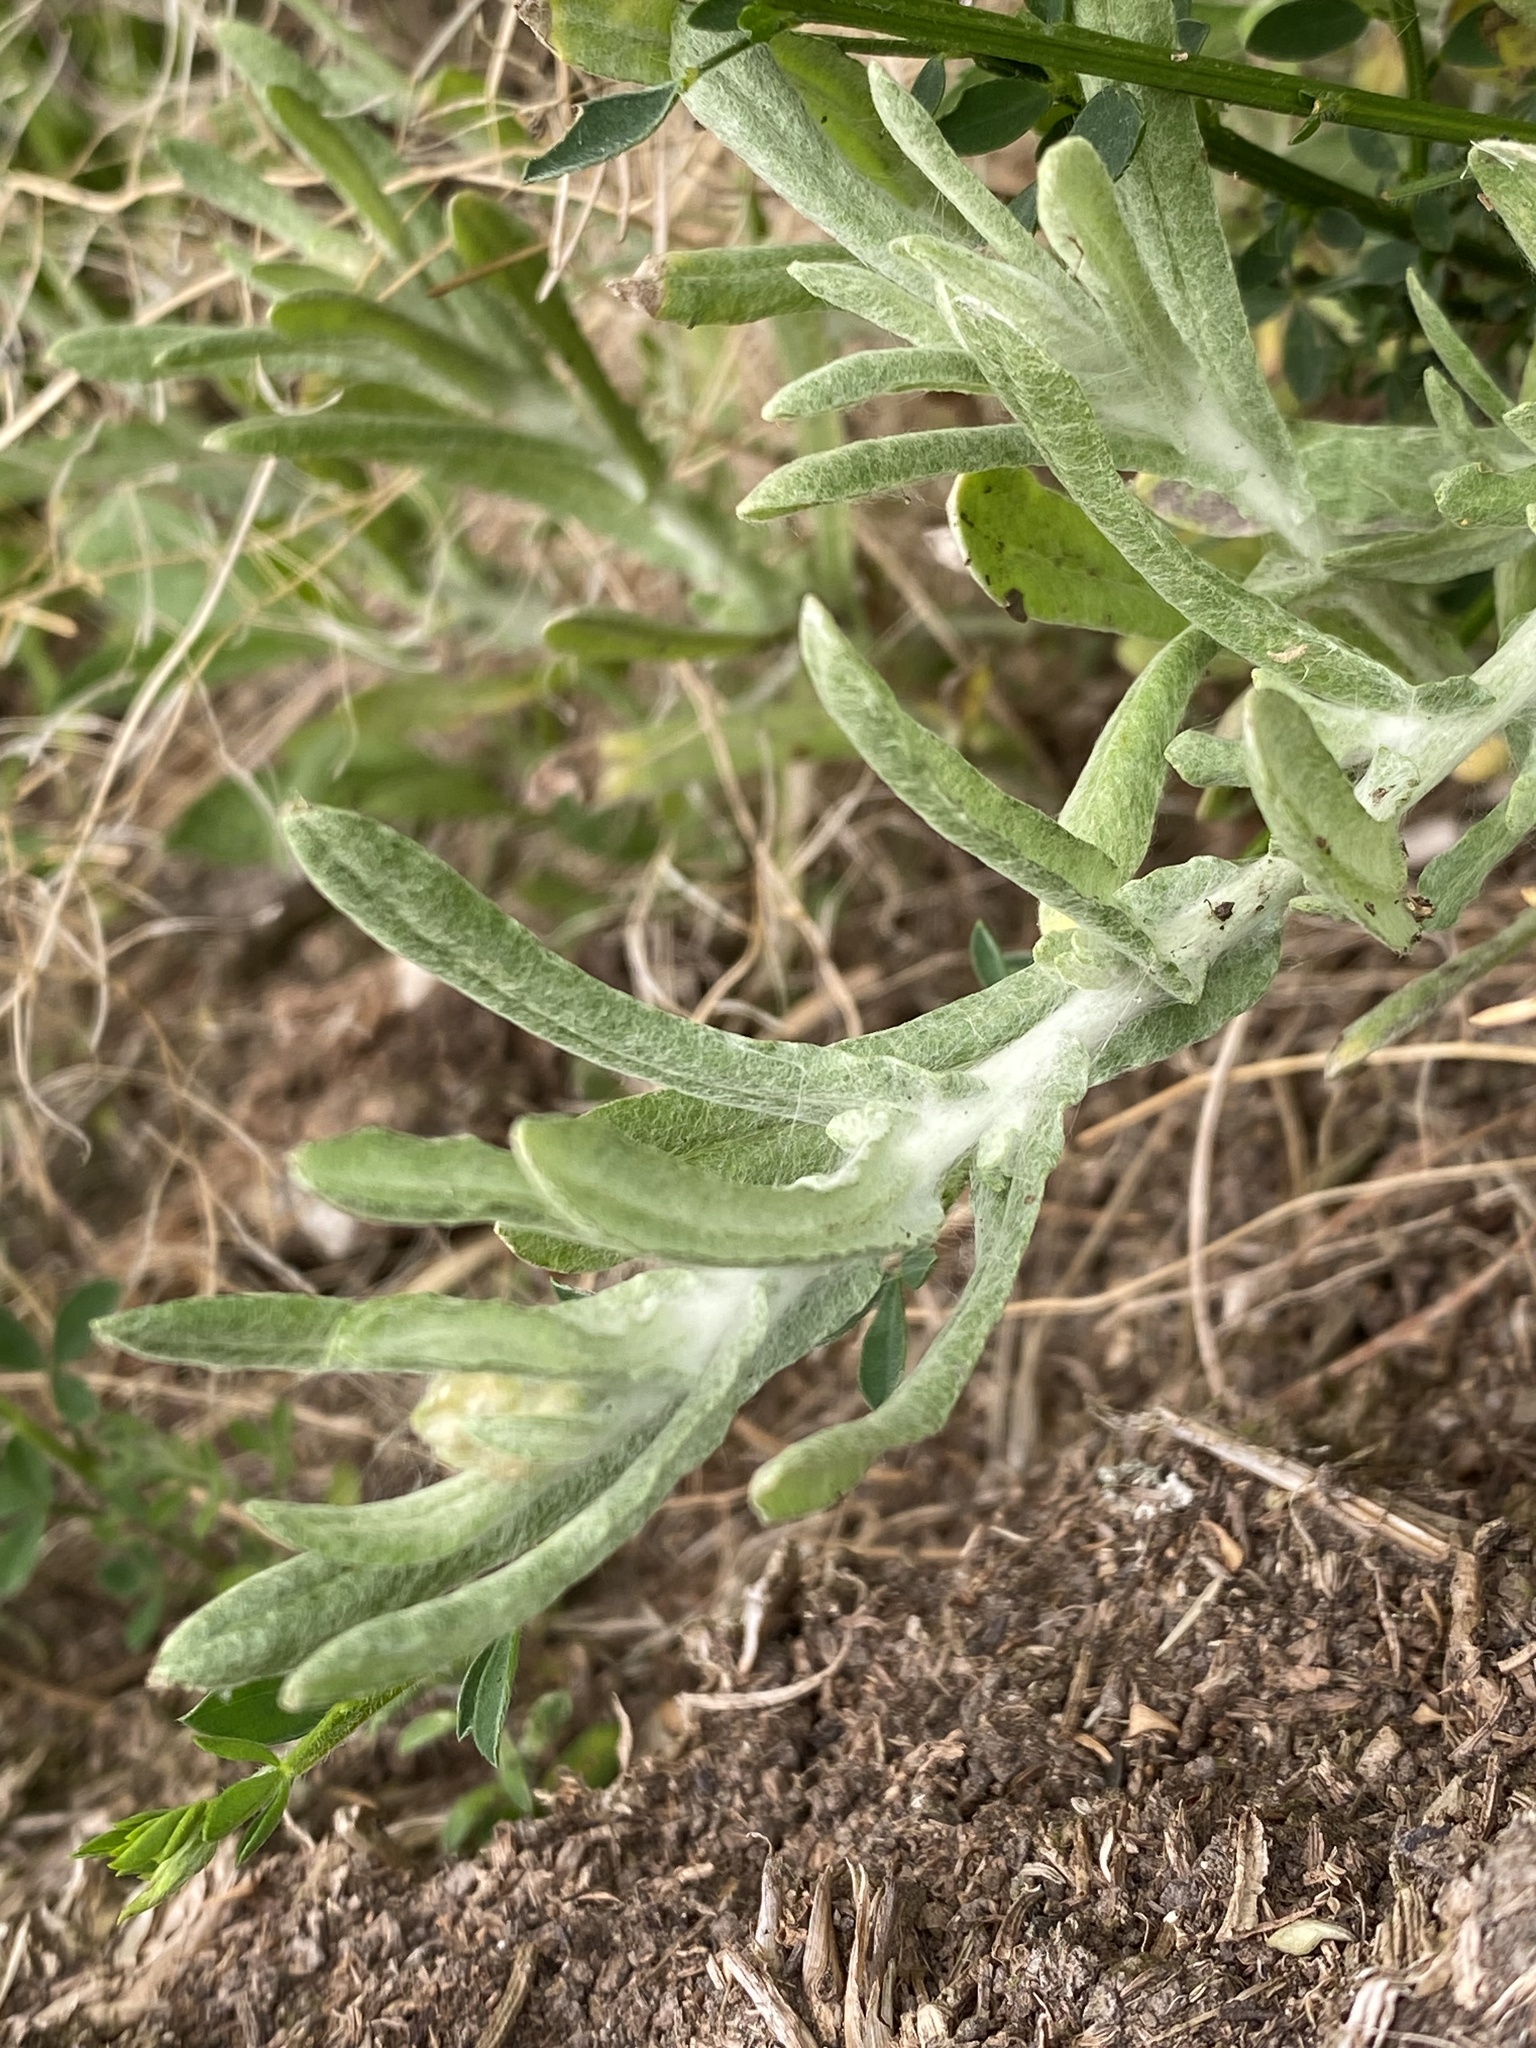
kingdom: Plantae
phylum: Tracheophyta
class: Magnoliopsida
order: Asterales
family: Asteraceae
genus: Helichrysum
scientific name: Helichrysum luteoalbum
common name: Daisy
